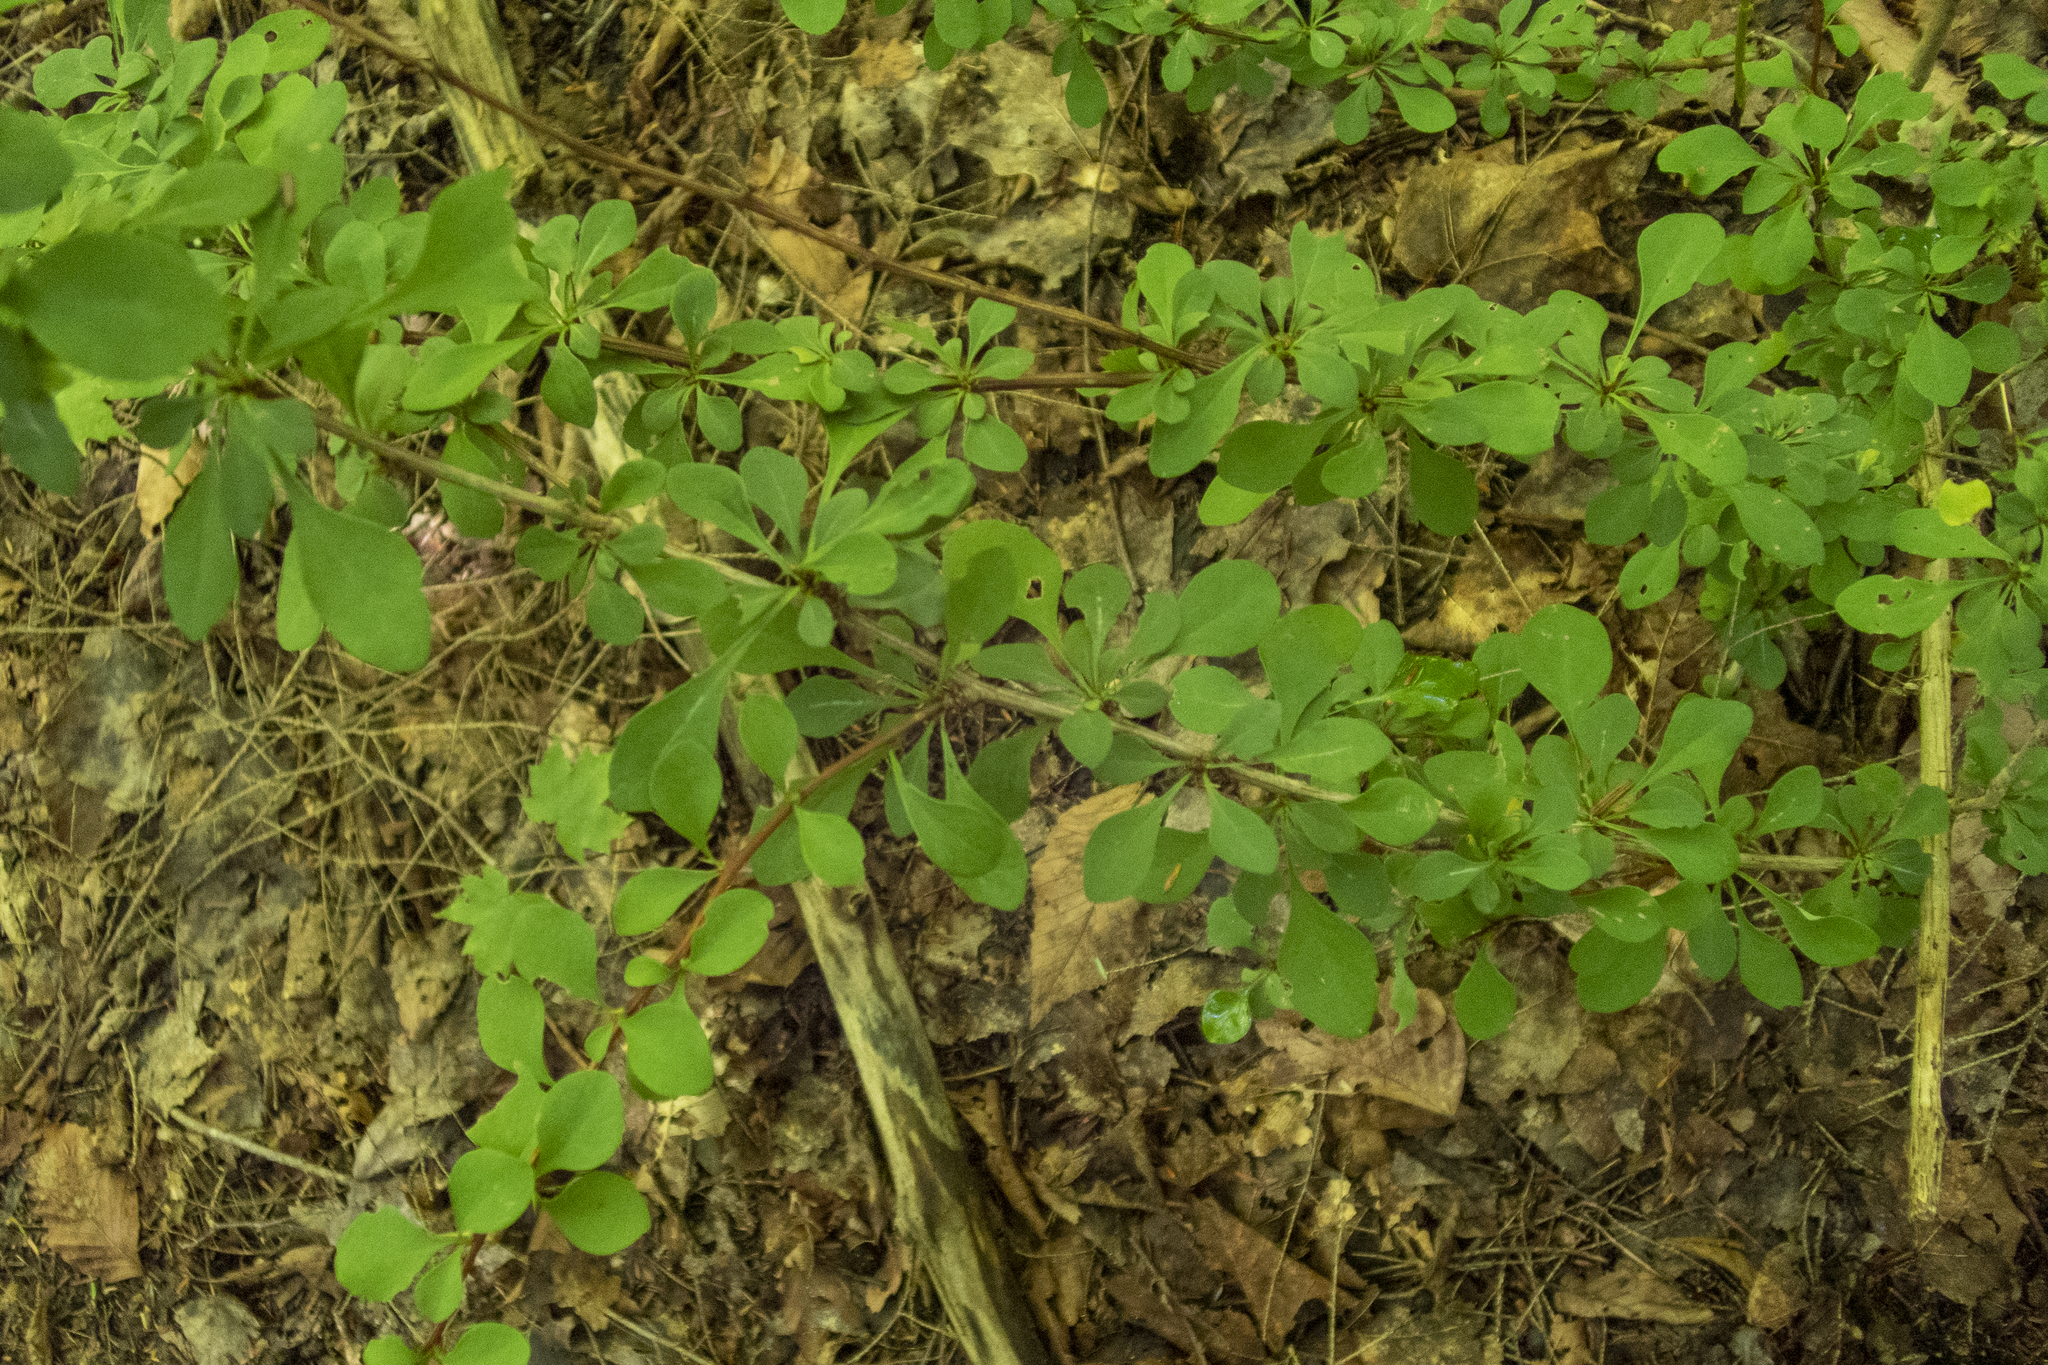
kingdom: Plantae
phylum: Tracheophyta
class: Magnoliopsida
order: Ranunculales
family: Berberidaceae
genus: Berberis
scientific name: Berberis thunbergii
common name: Japanese barberry
